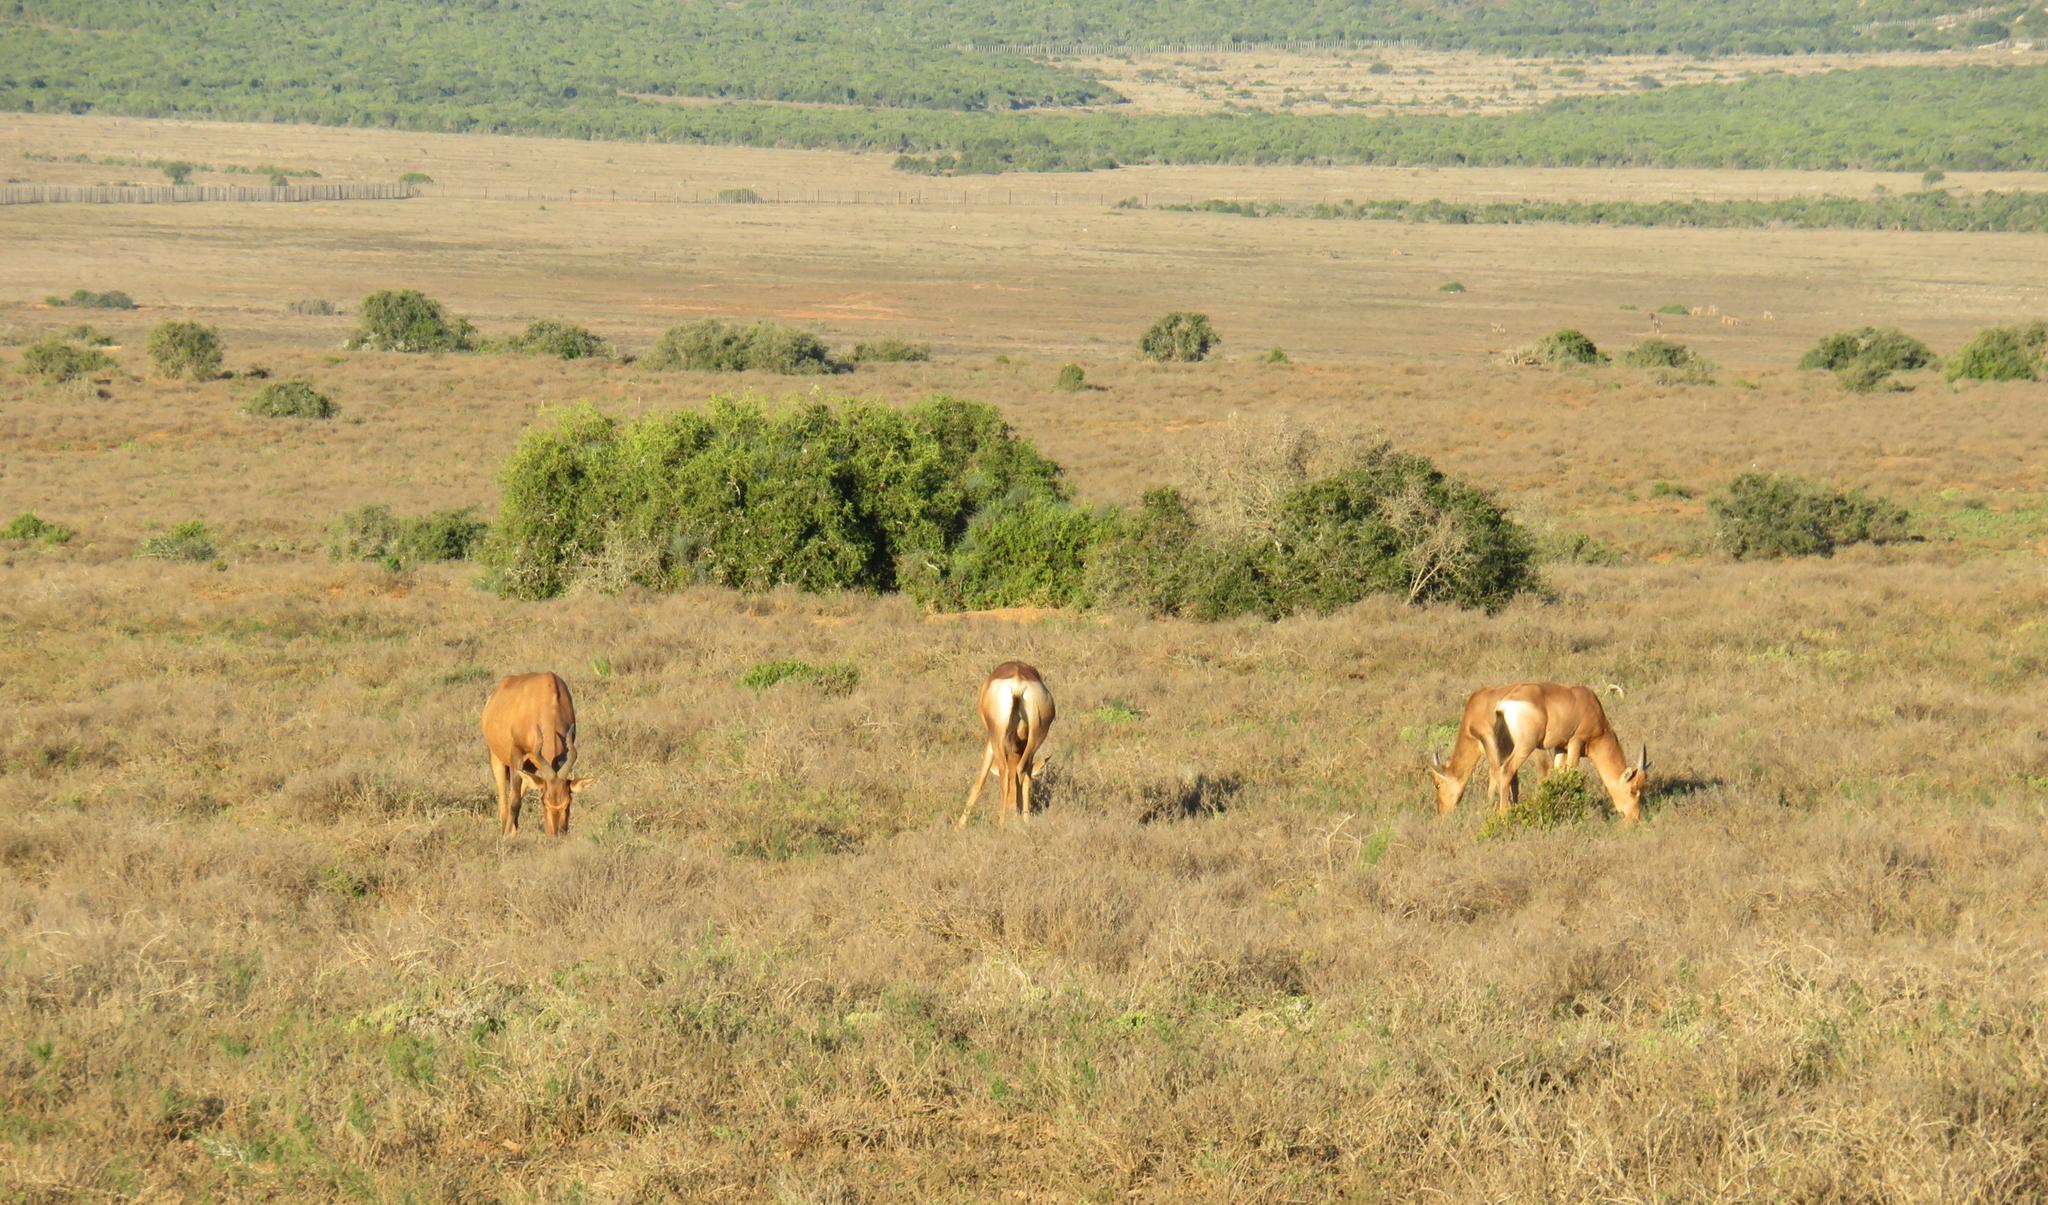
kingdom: Animalia
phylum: Chordata
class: Mammalia
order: Artiodactyla
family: Bovidae
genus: Alcelaphus
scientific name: Alcelaphus caama
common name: Red hartebeest
